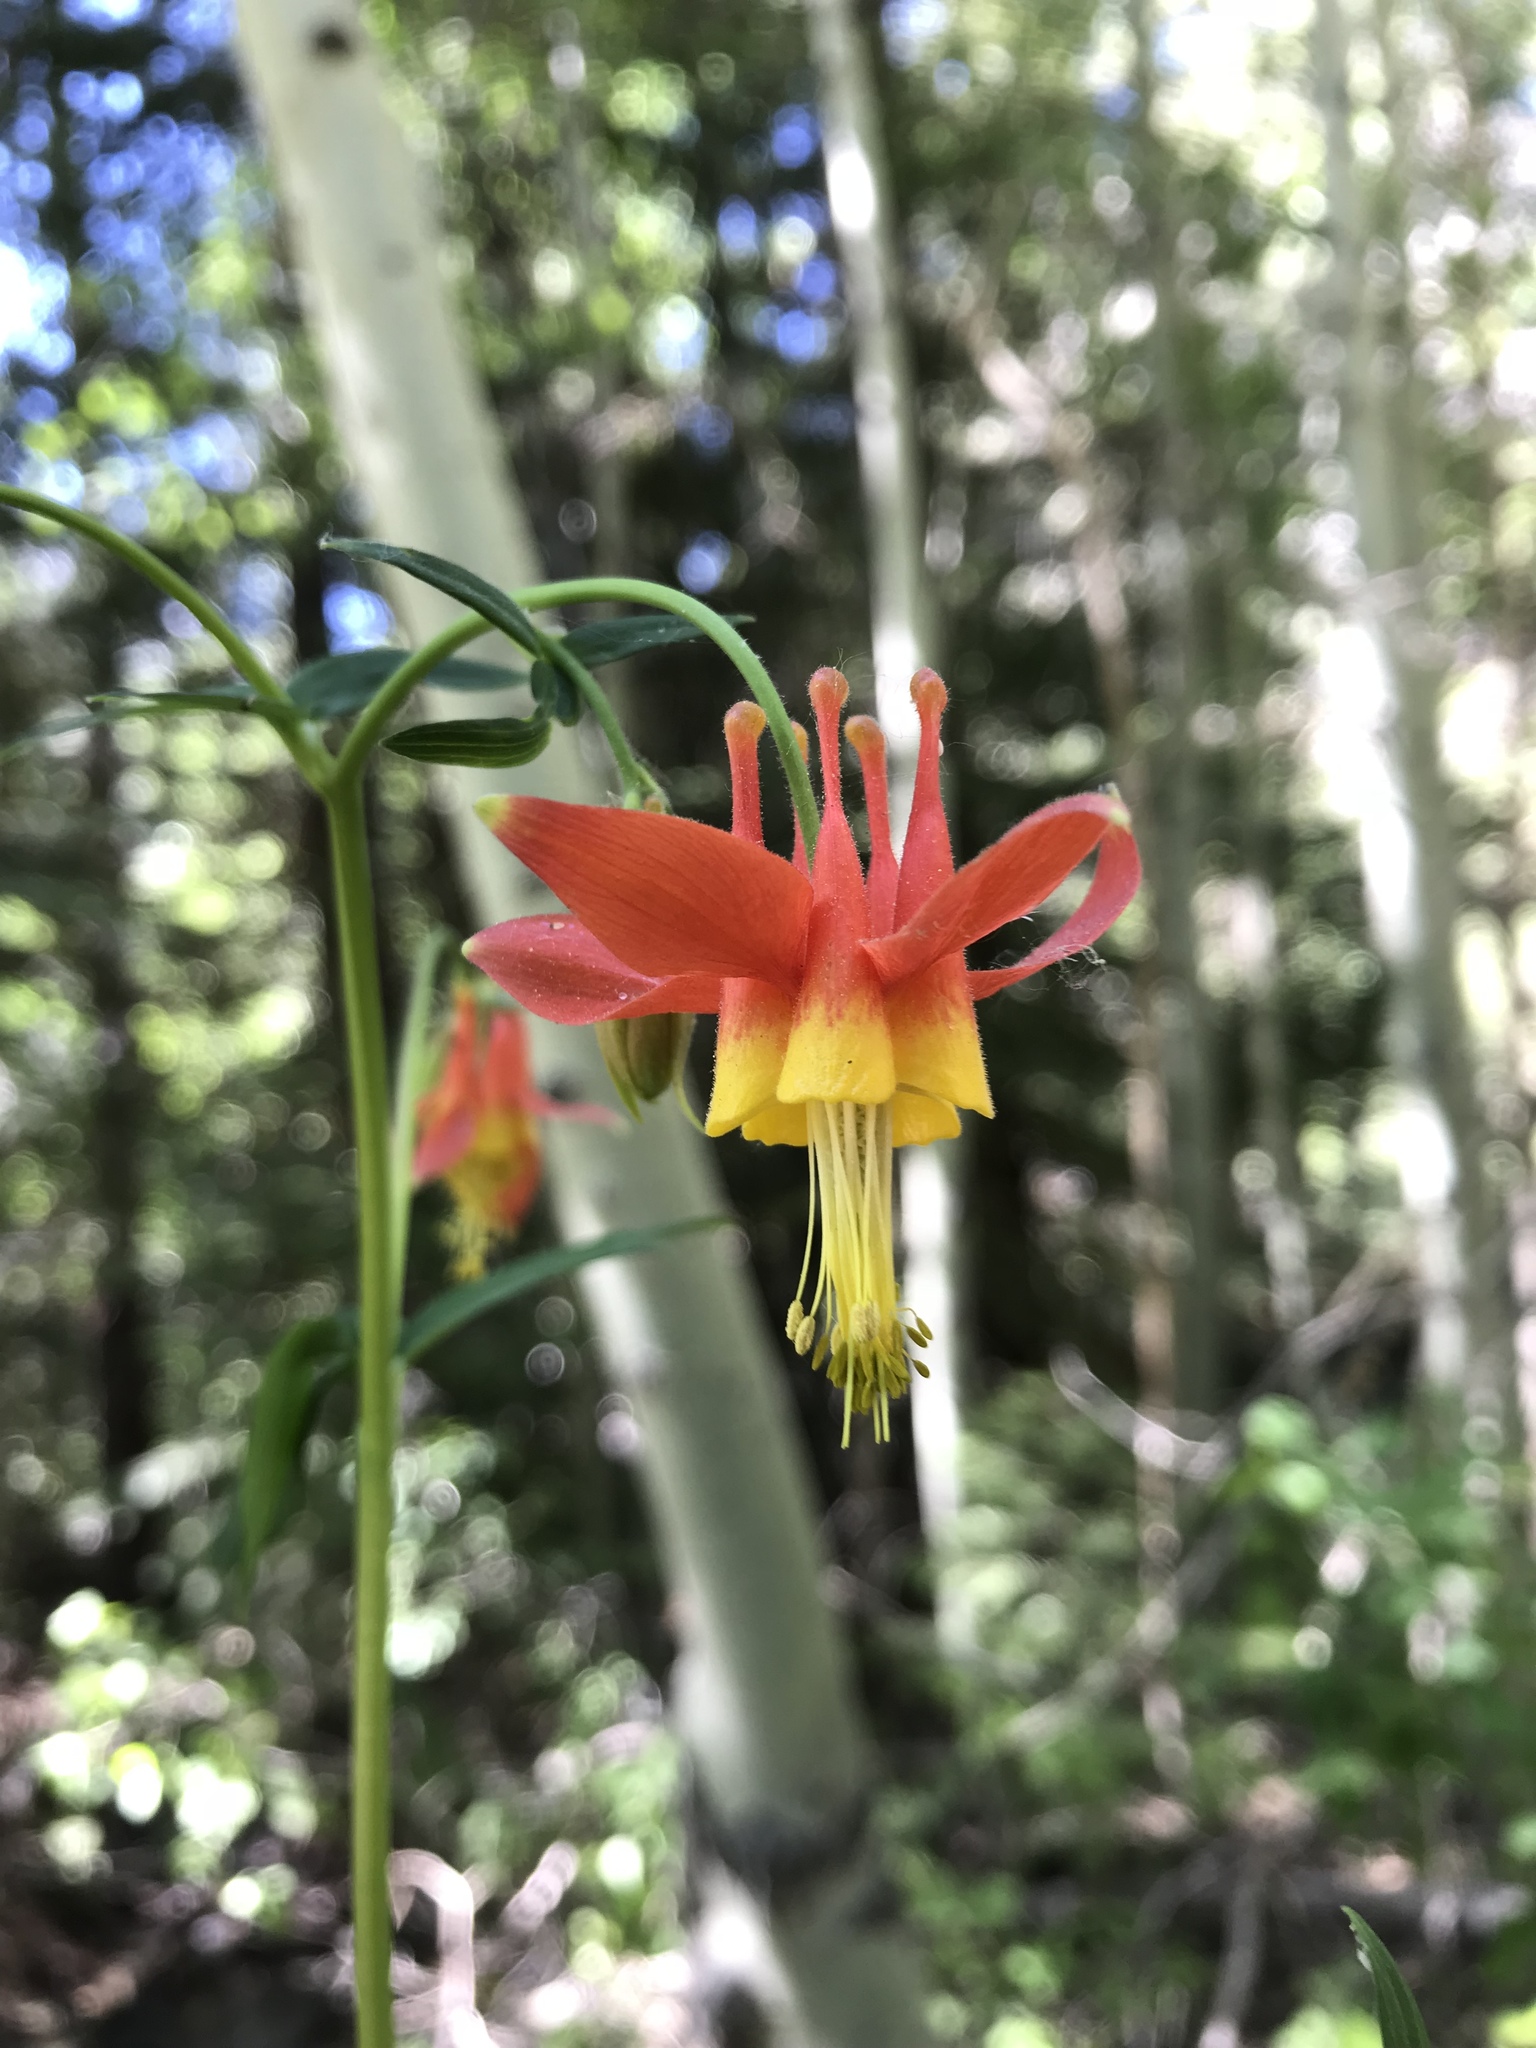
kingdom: Plantae
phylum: Tracheophyta
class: Magnoliopsida
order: Ranunculales
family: Ranunculaceae
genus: Aquilegia
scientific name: Aquilegia formosa
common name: Sitka columbine
